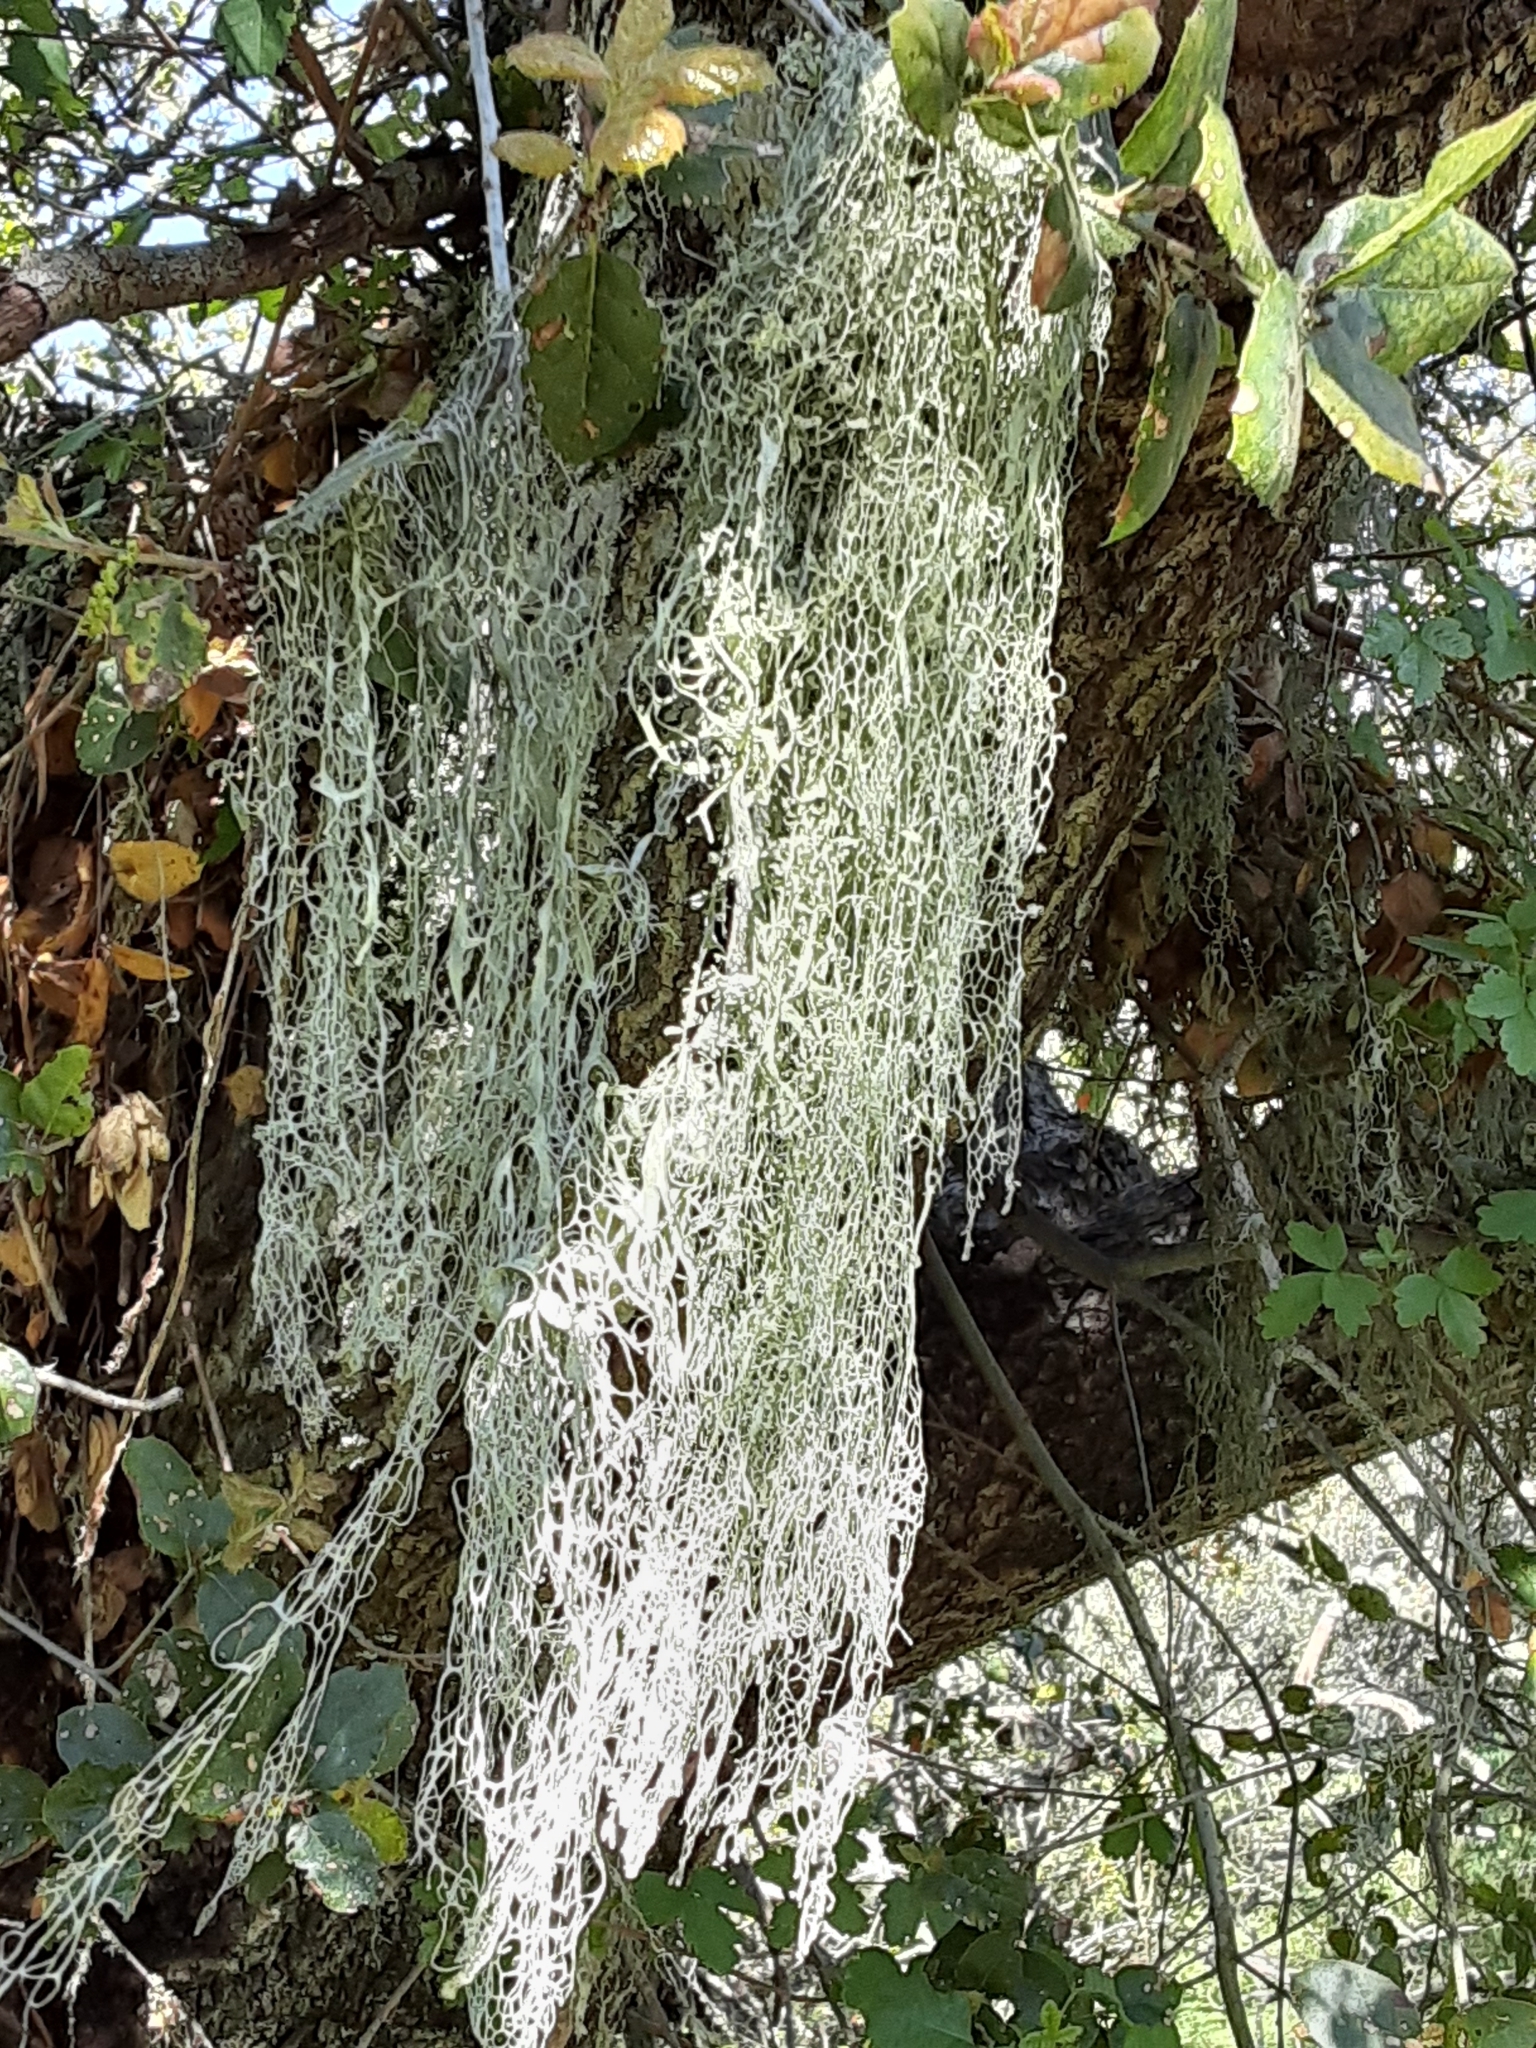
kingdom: Fungi
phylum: Ascomycota
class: Lecanoromycetes
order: Lecanorales
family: Ramalinaceae
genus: Ramalina
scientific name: Ramalina menziesii
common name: Lace lichen
